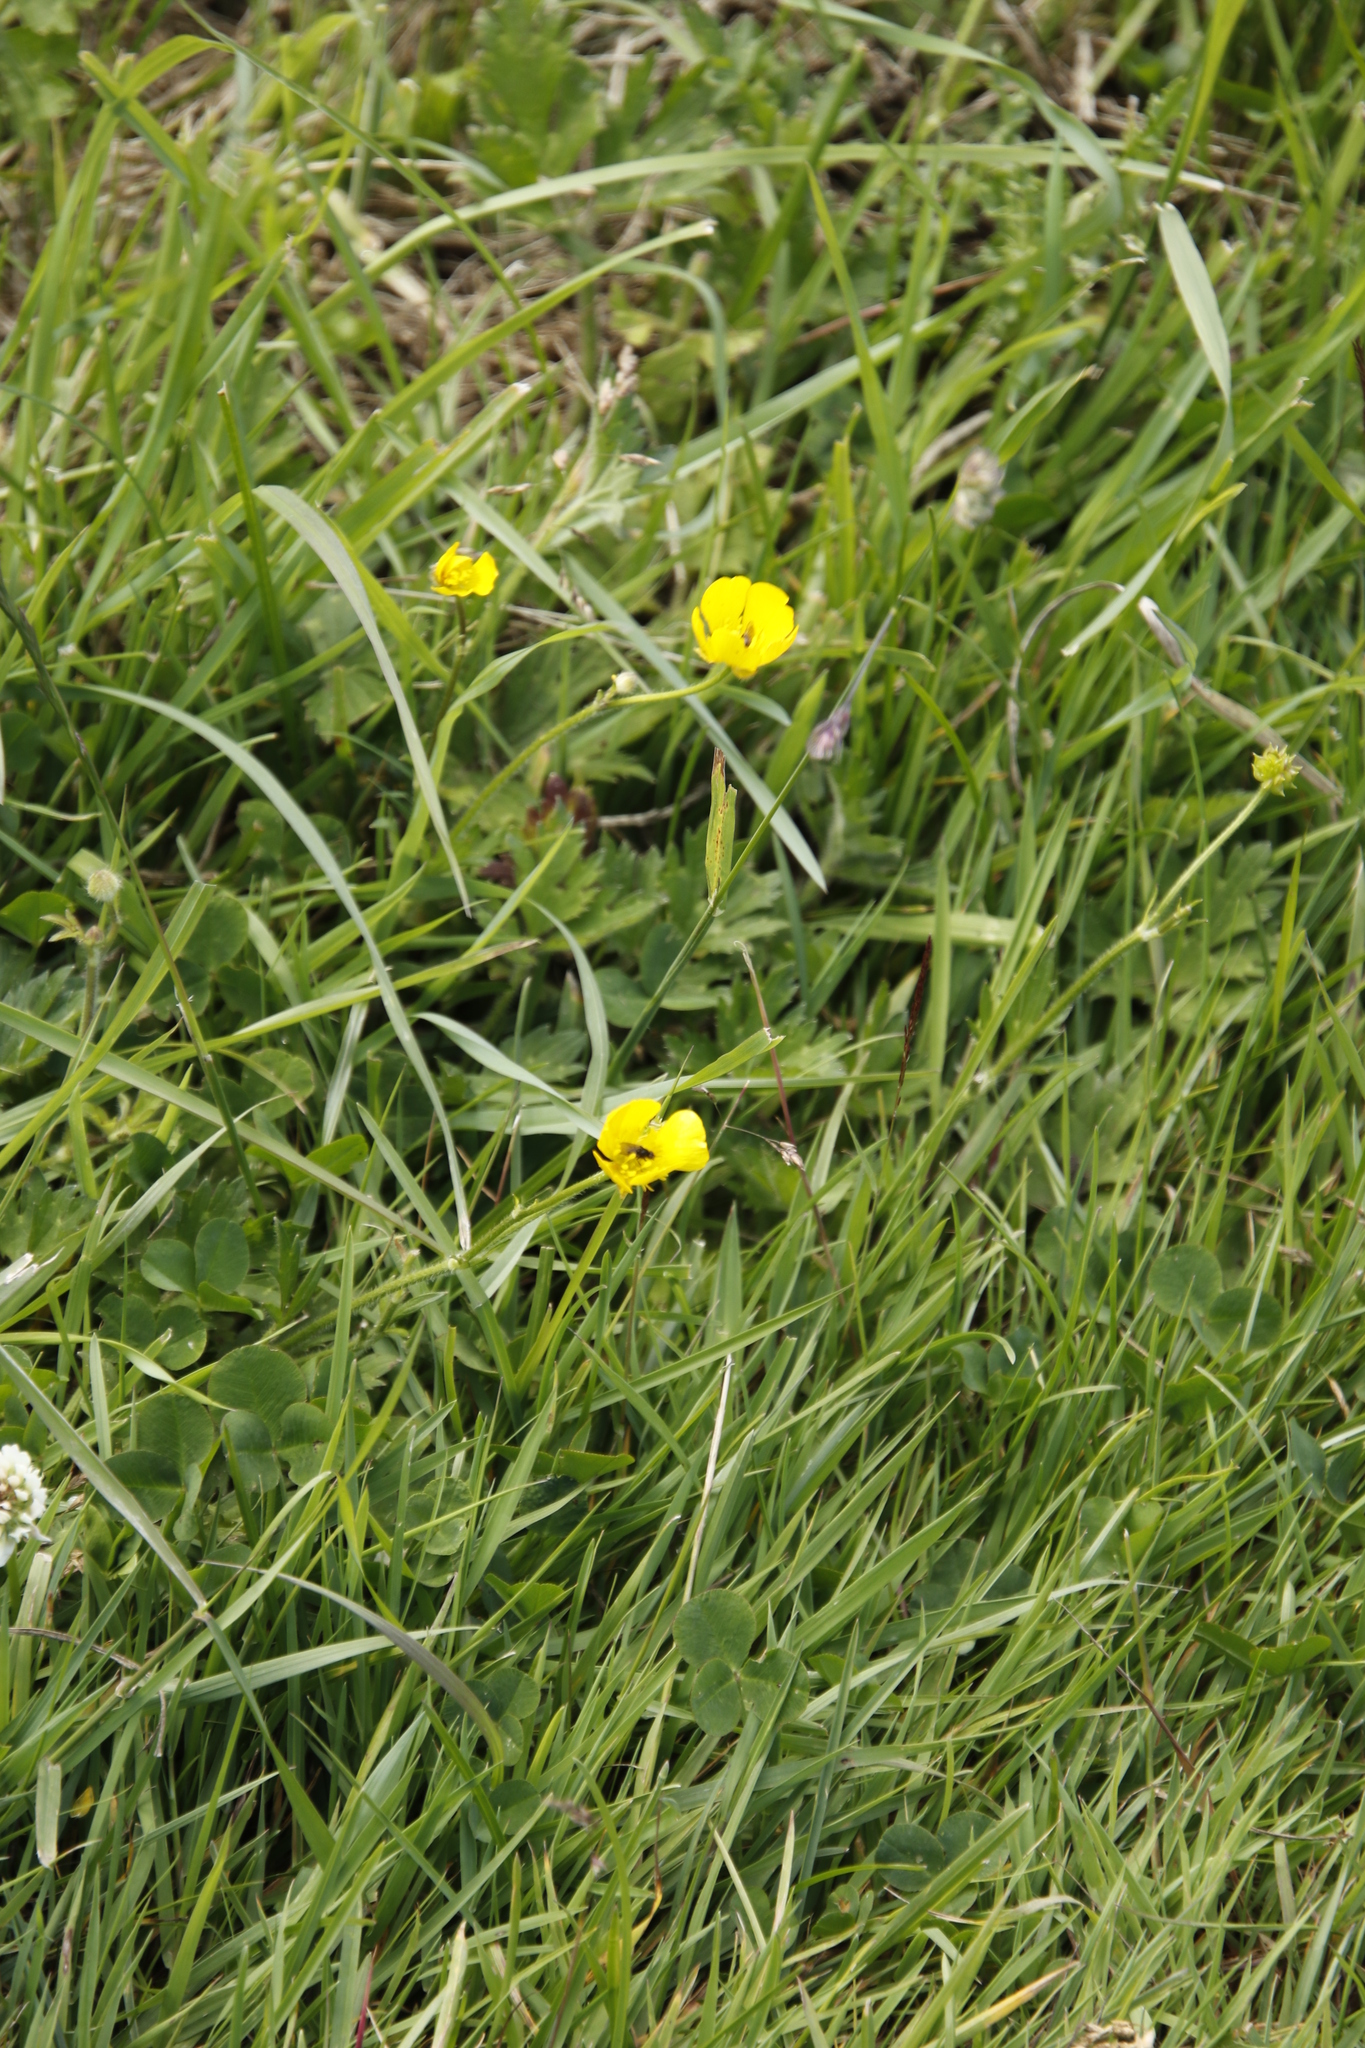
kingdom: Plantae
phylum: Tracheophyta
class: Magnoliopsida
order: Ranunculales
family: Ranunculaceae
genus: Ranunculus
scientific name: Ranunculus repens
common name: Creeping buttercup
